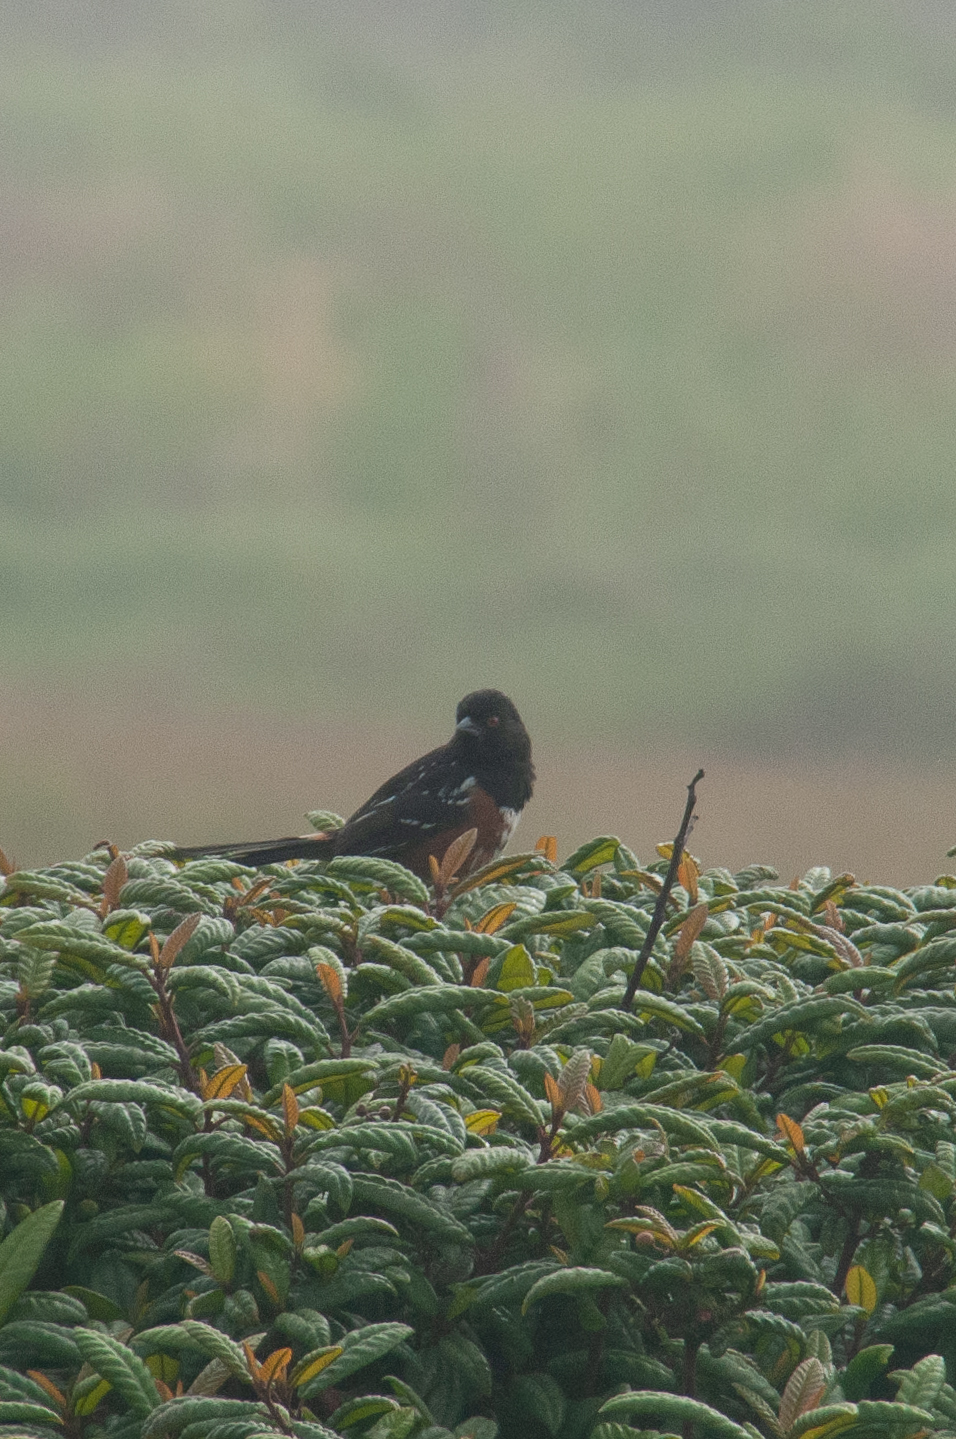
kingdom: Animalia
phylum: Chordata
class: Aves
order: Passeriformes
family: Passerellidae
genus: Pipilo
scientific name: Pipilo maculatus
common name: Spotted towhee
